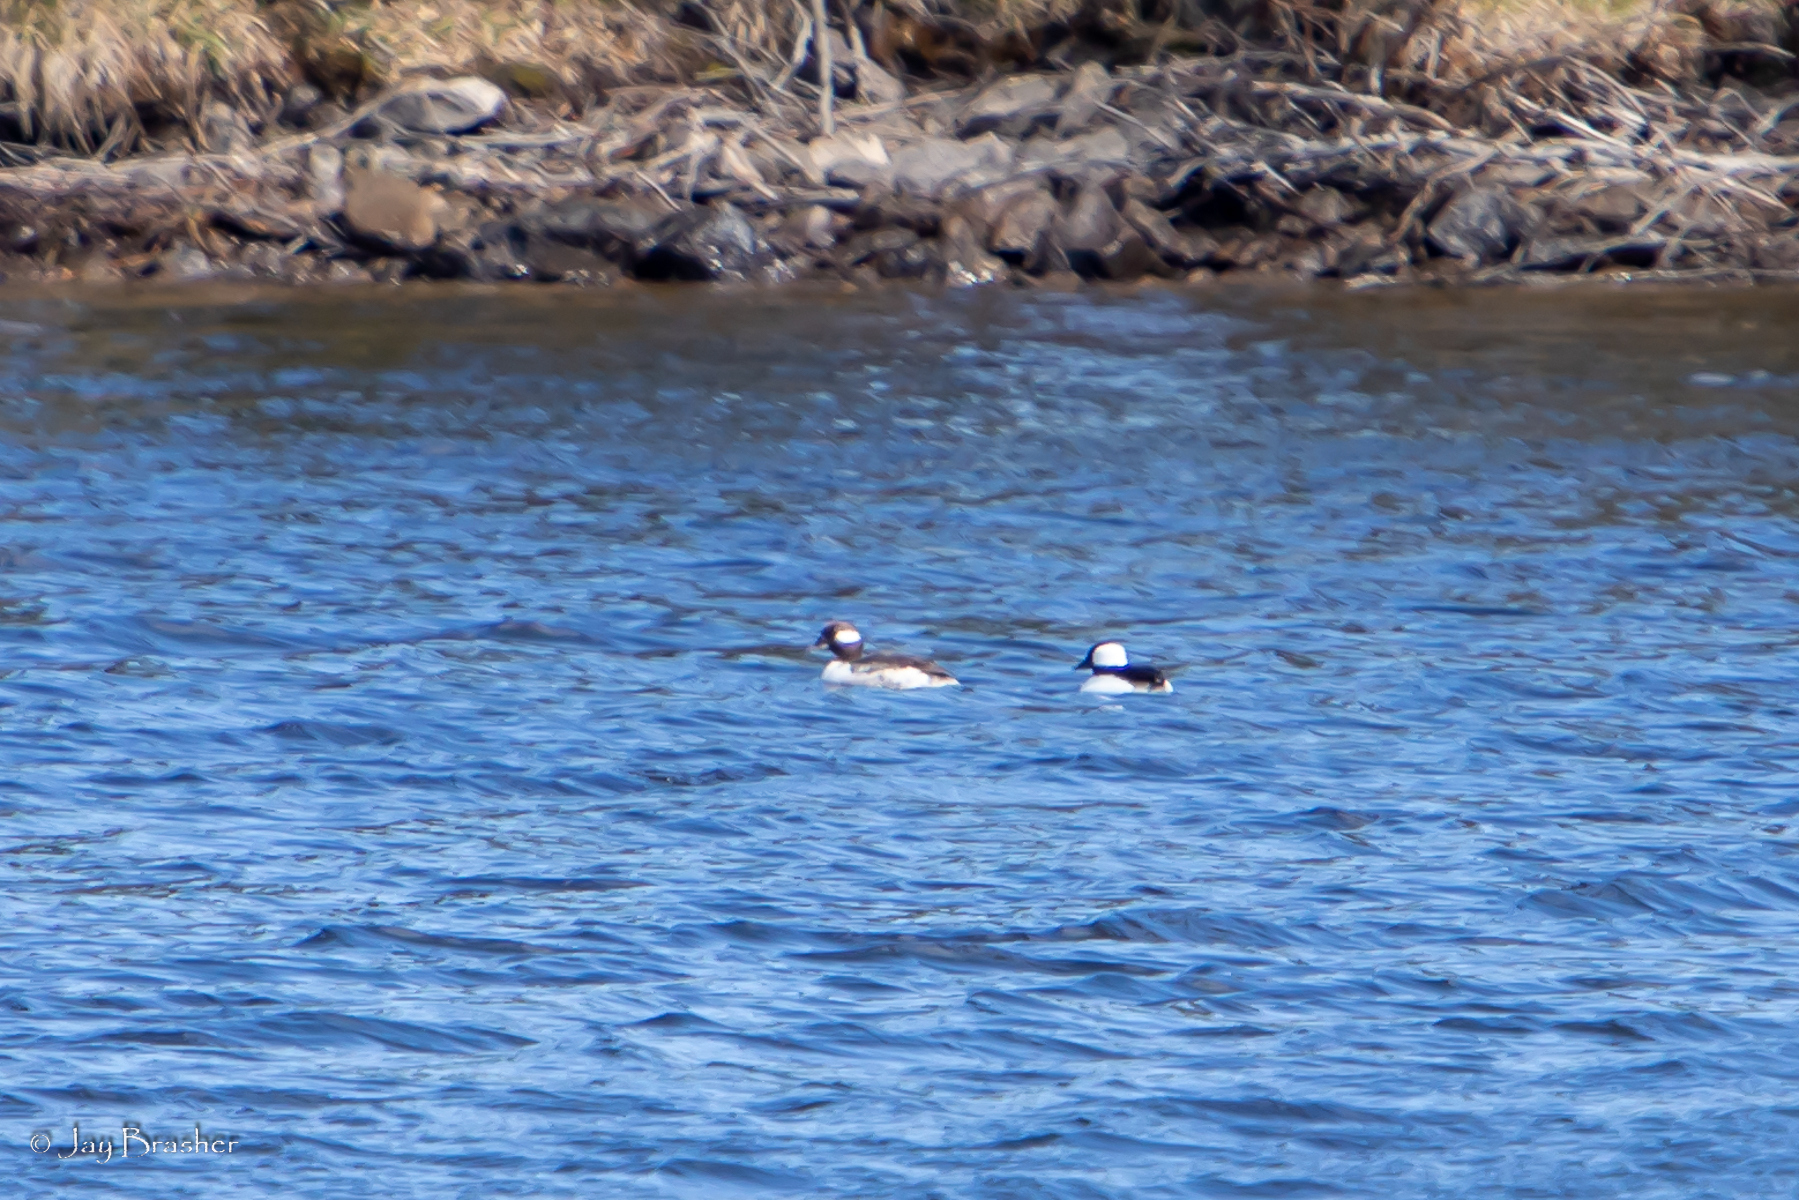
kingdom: Animalia
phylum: Chordata
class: Aves
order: Anseriformes
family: Anatidae
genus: Bucephala
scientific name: Bucephala albeola
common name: Bufflehead
